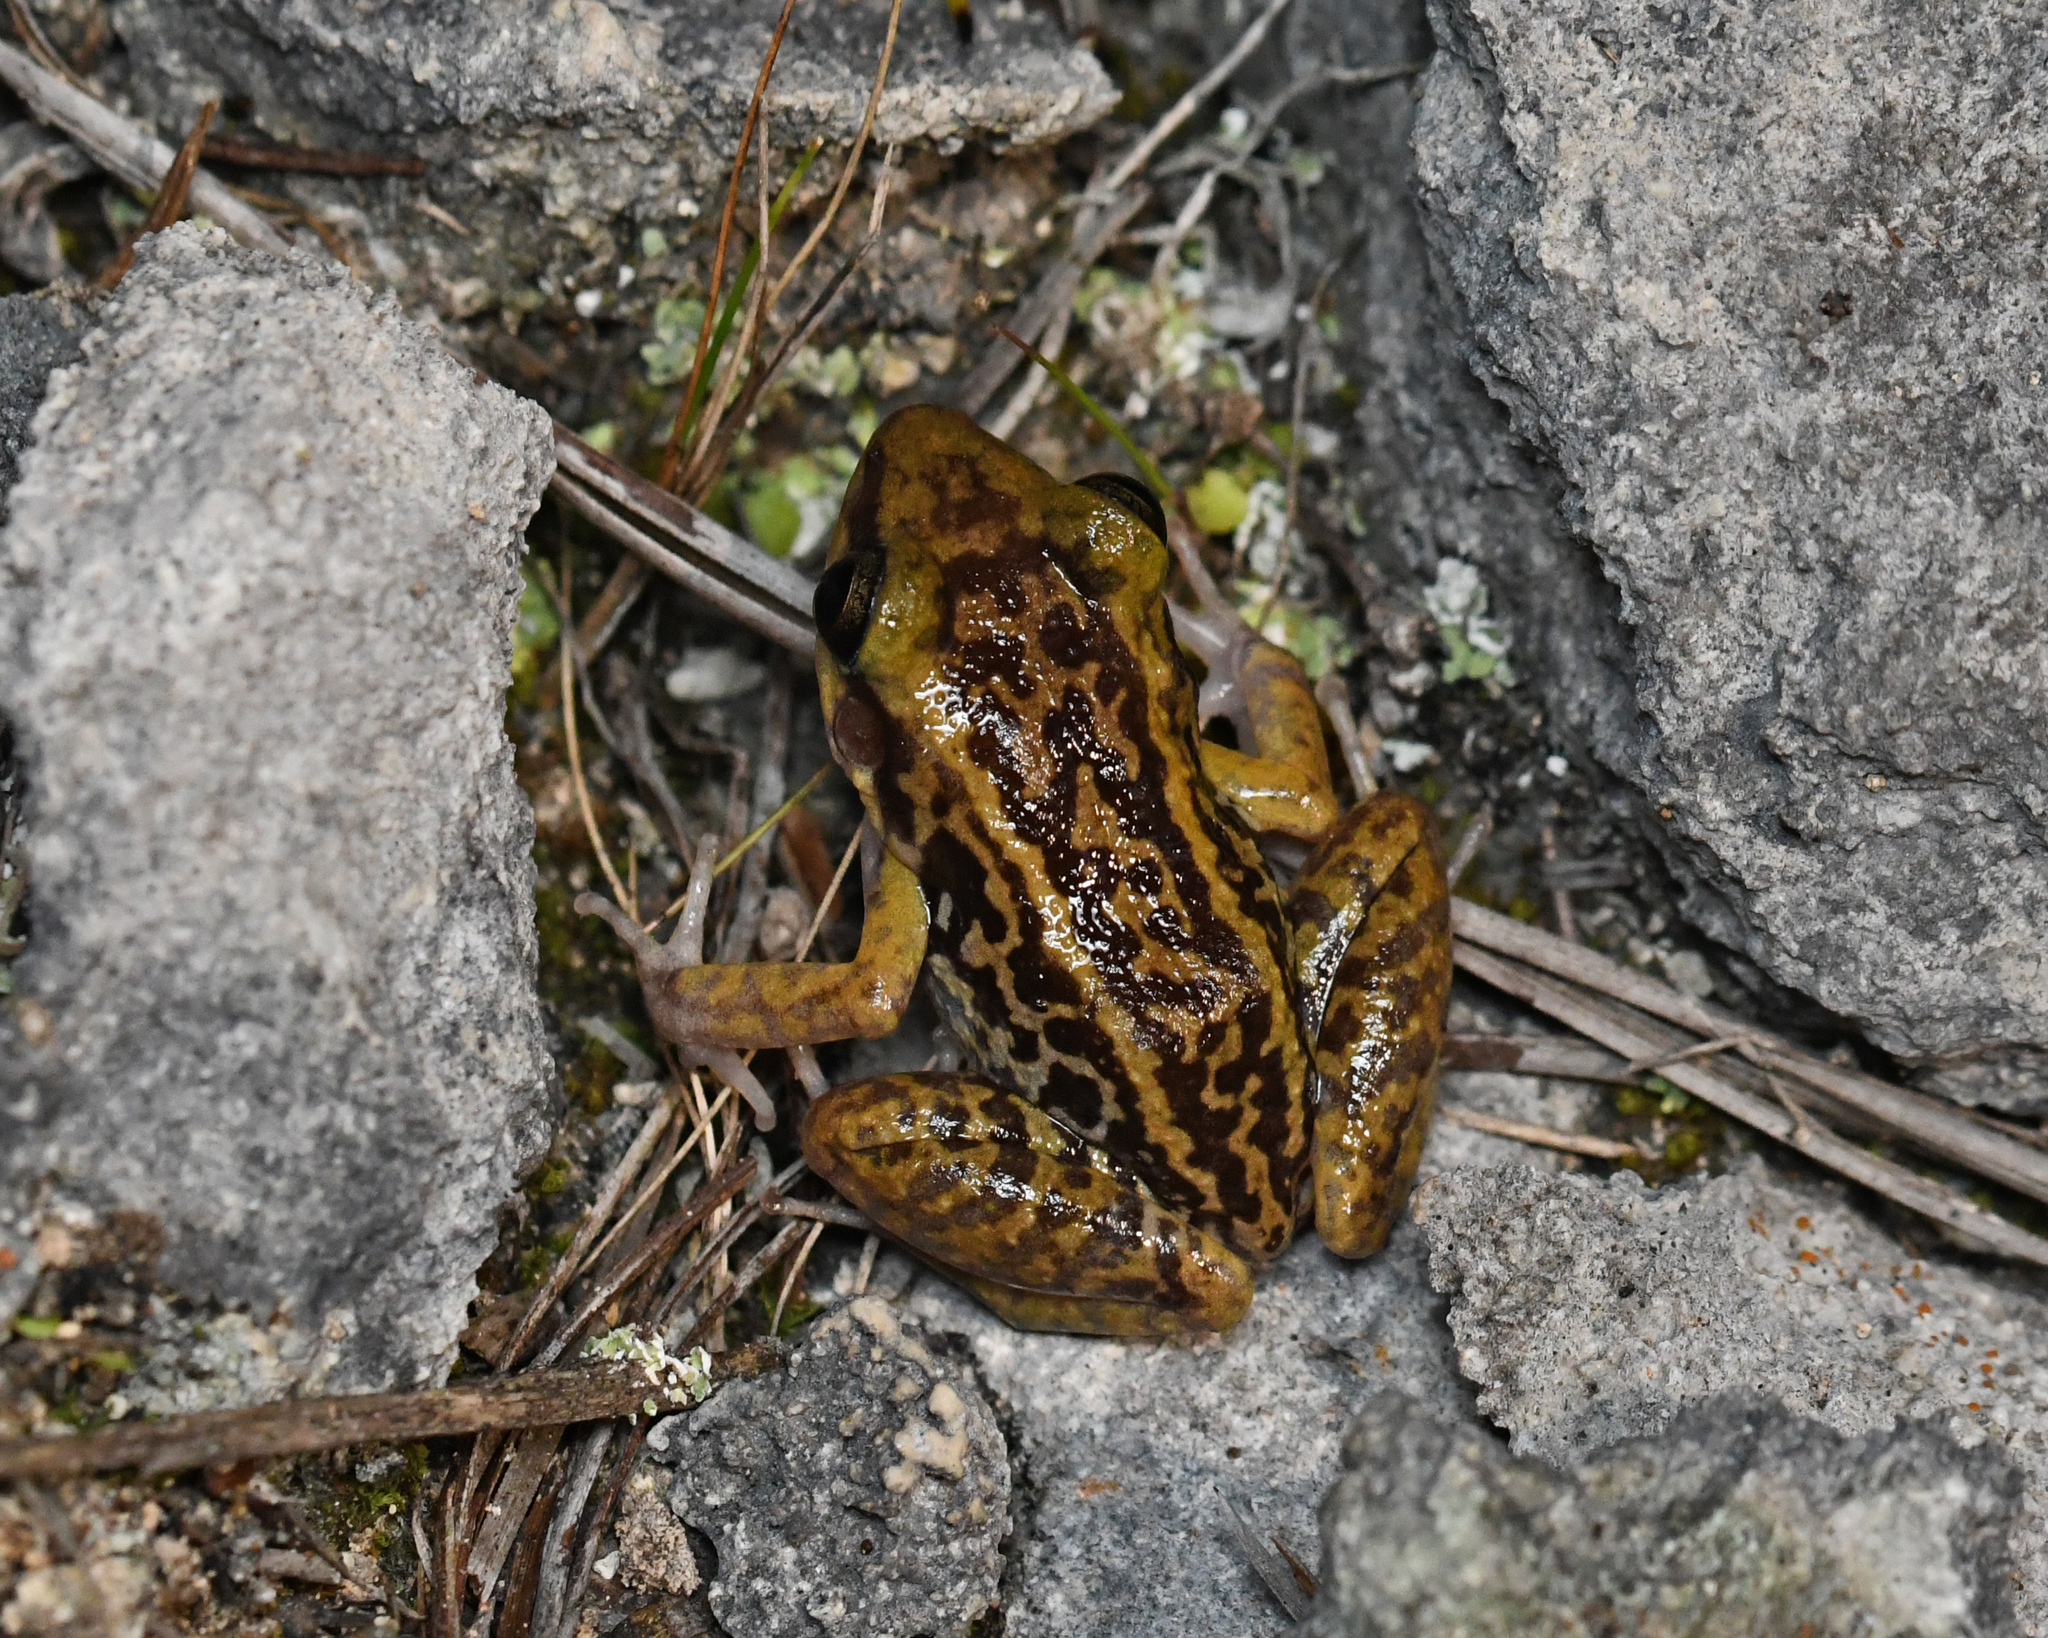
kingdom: Animalia
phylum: Chordata
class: Amphibia
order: Anura
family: Eleutherodactylidae
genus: Eleutherodactylus
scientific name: Eleutherodactylus pictissimus
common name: Hispaniolan yellow-mottled frog
